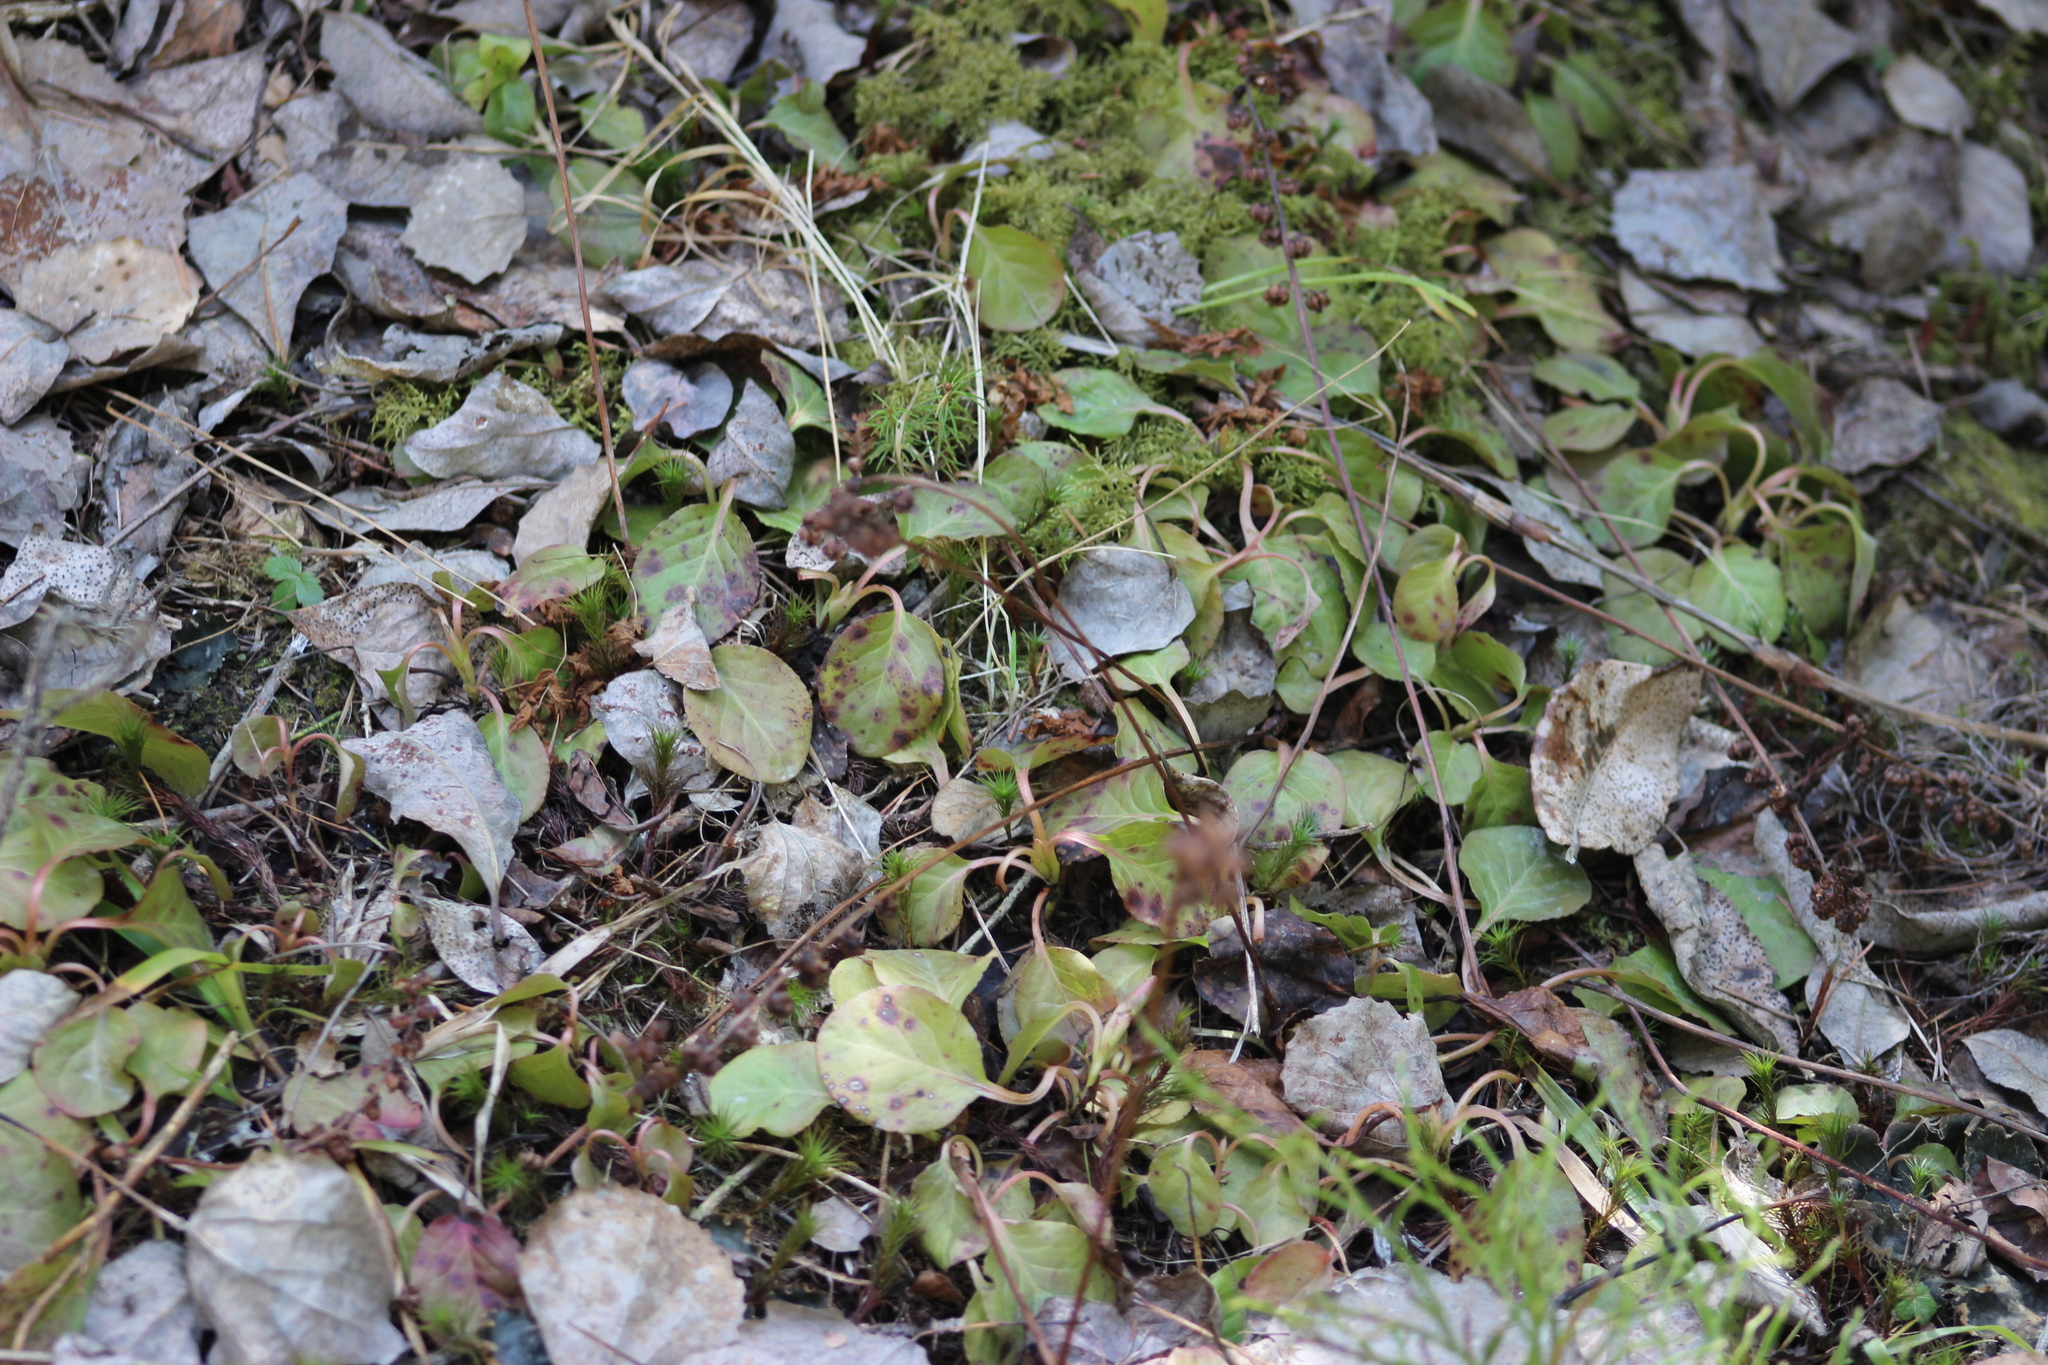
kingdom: Plantae
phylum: Tracheophyta
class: Magnoliopsida
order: Ericales
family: Ericaceae
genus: Pyrola
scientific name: Pyrola minor
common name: Common wintergreen
